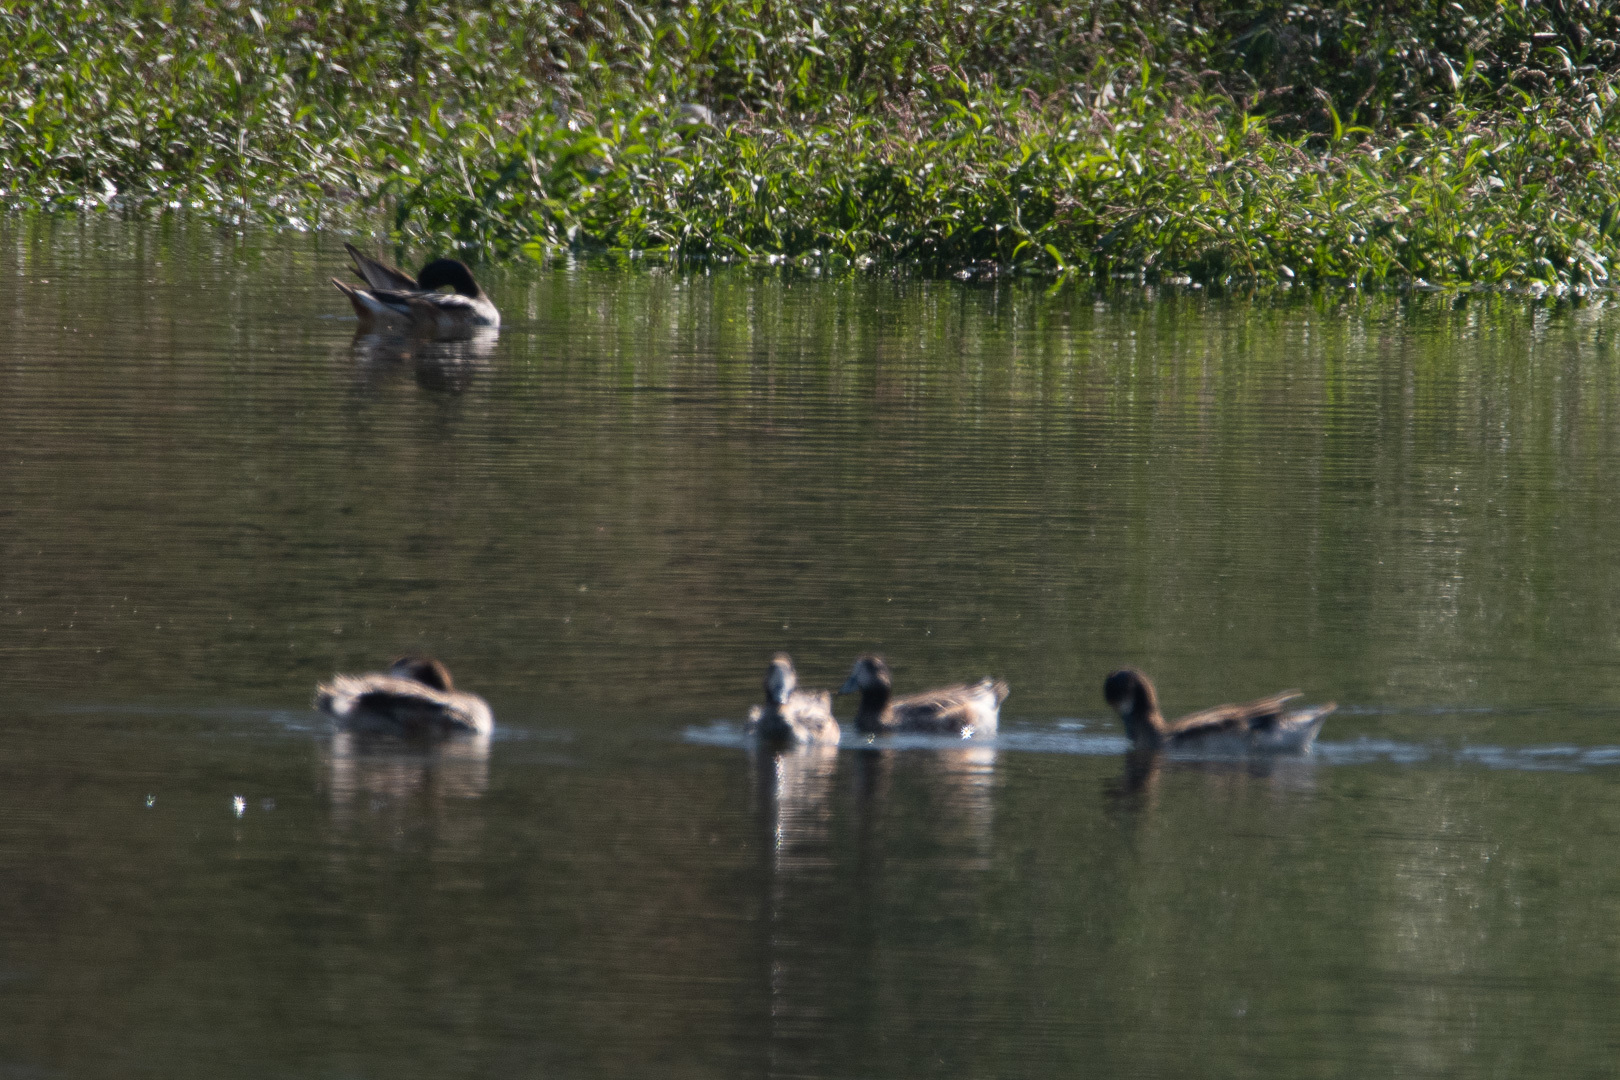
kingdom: Animalia
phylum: Chordata
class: Aves
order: Anseriformes
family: Anatidae
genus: Mareca
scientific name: Mareca sibilatrix
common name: Chiloe wigeon
